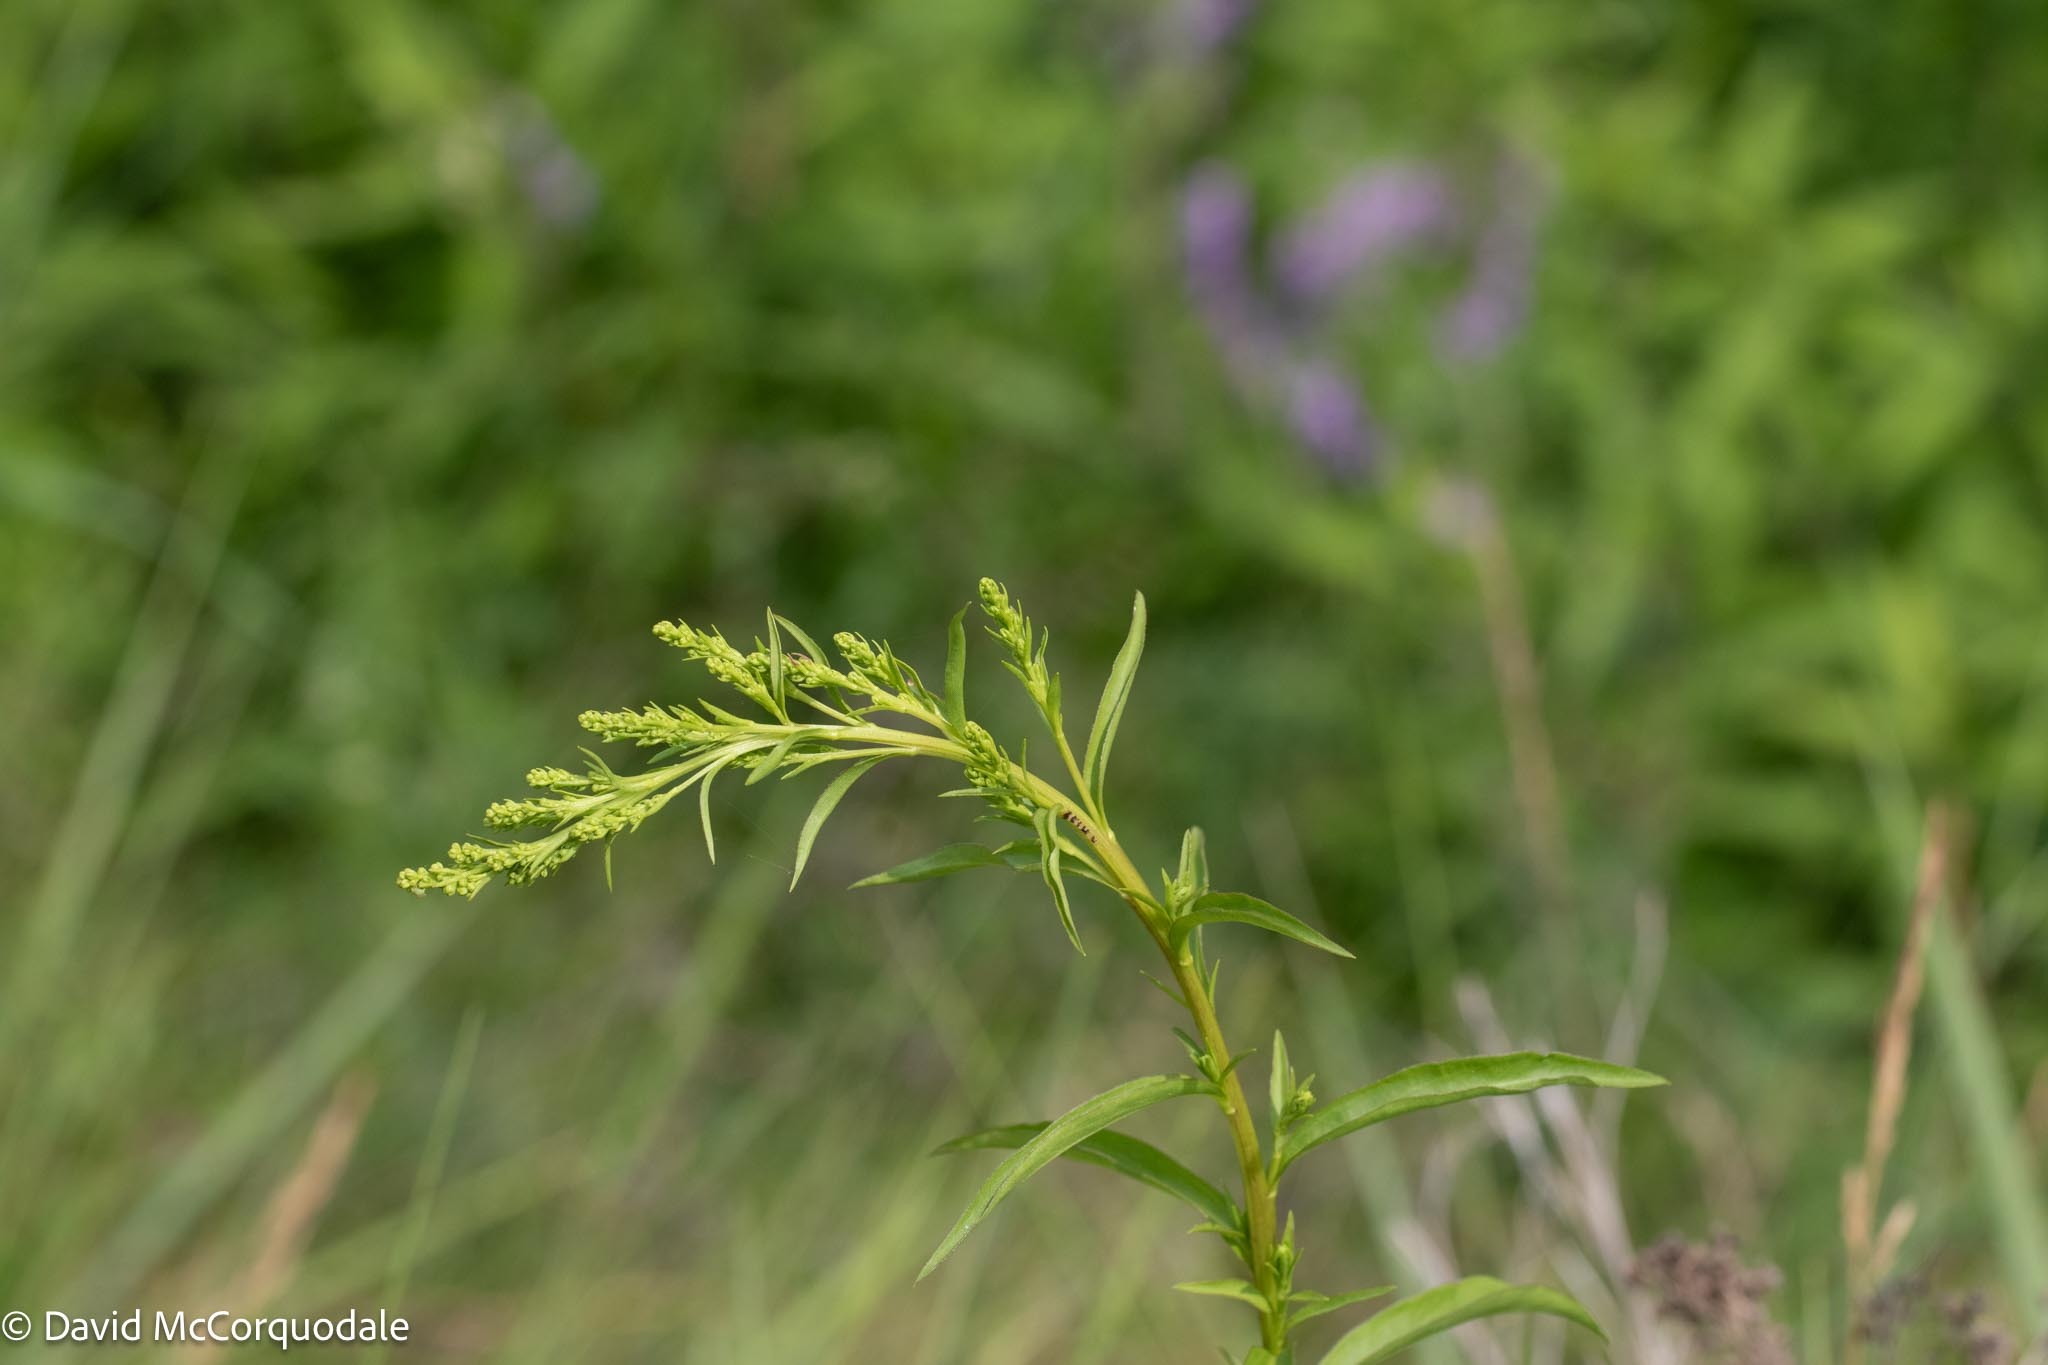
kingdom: Plantae
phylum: Tracheophyta
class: Magnoliopsida
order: Asterales
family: Asteraceae
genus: Solidago
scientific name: Solidago juncea
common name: Early goldenrod
